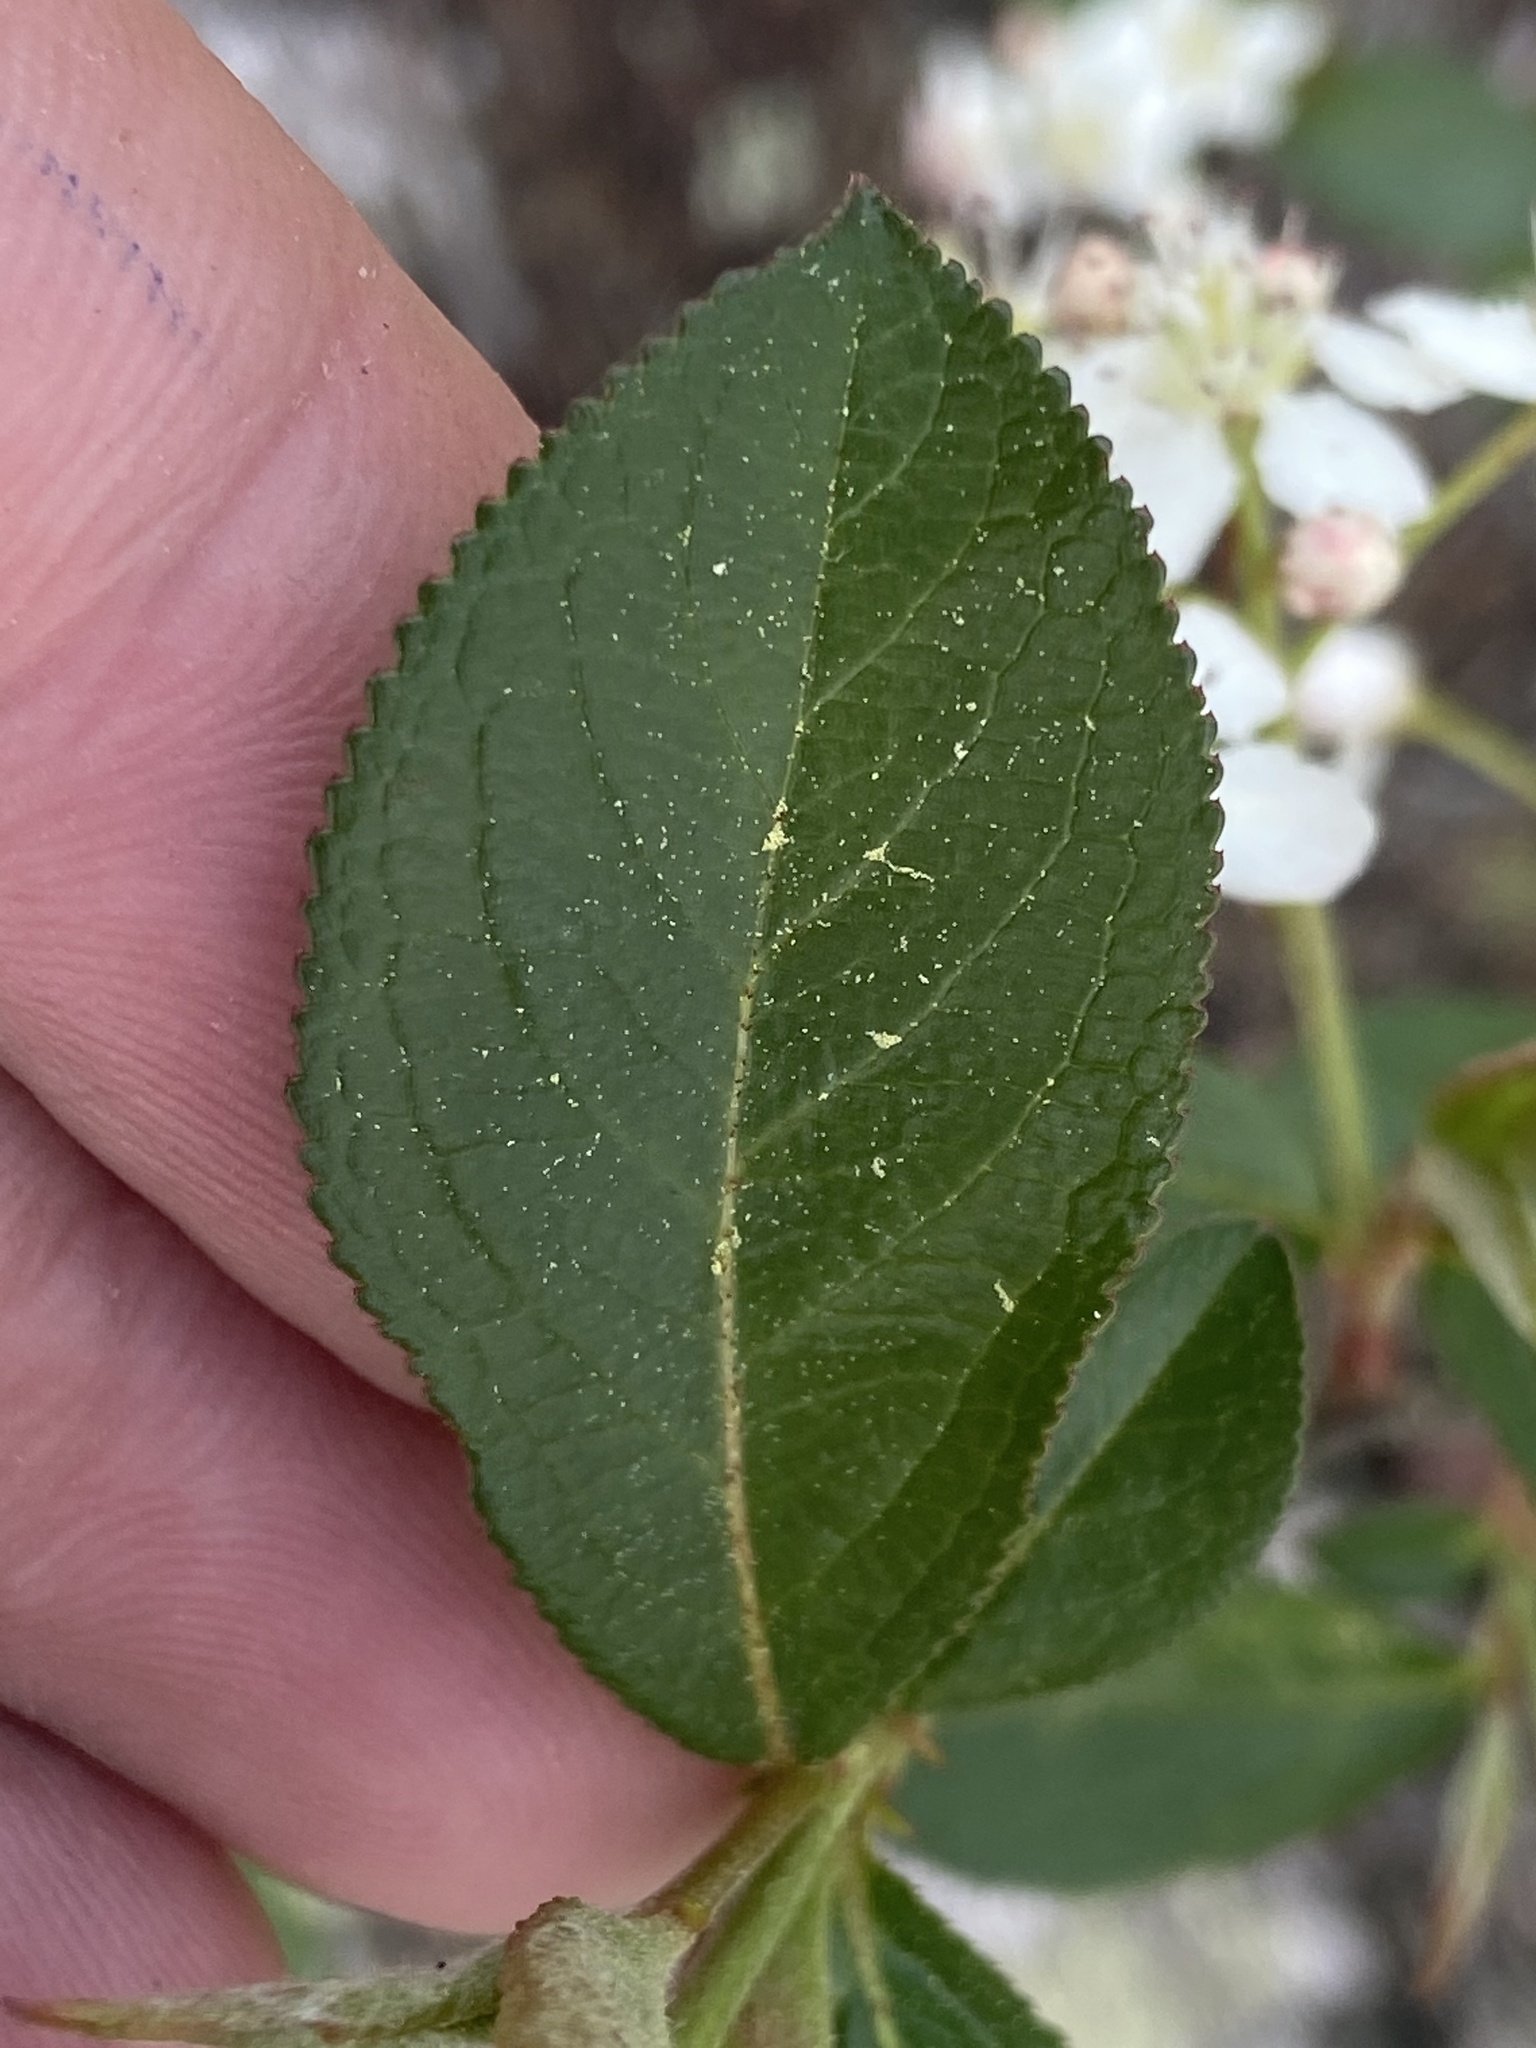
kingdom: Plantae
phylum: Tracheophyta
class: Magnoliopsida
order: Rosales
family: Rosaceae
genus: Aronia
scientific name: Aronia arbutifolia
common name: Red chokeberry
